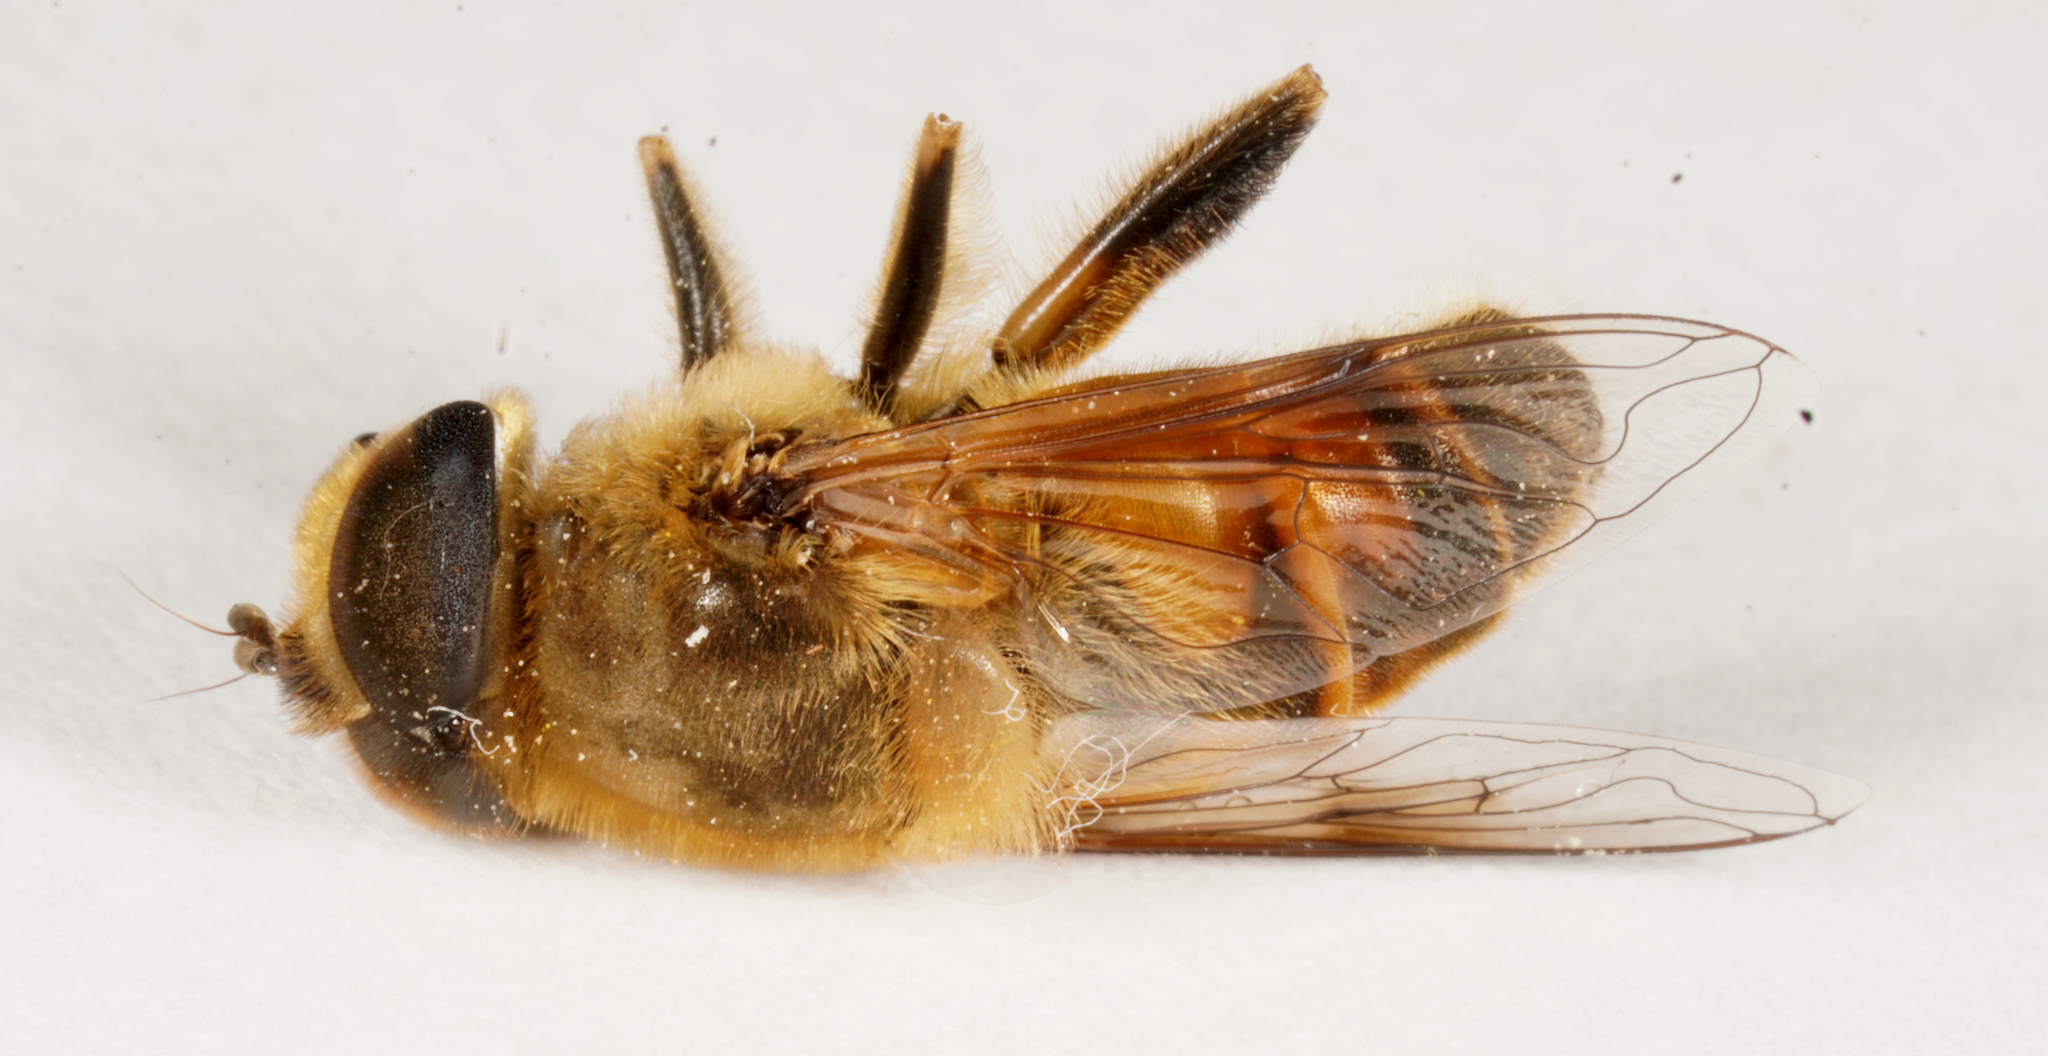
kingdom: Animalia
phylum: Arthropoda
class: Insecta
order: Diptera
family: Syrphidae
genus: Eristalis
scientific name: Eristalis tenax
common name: Drone fly
